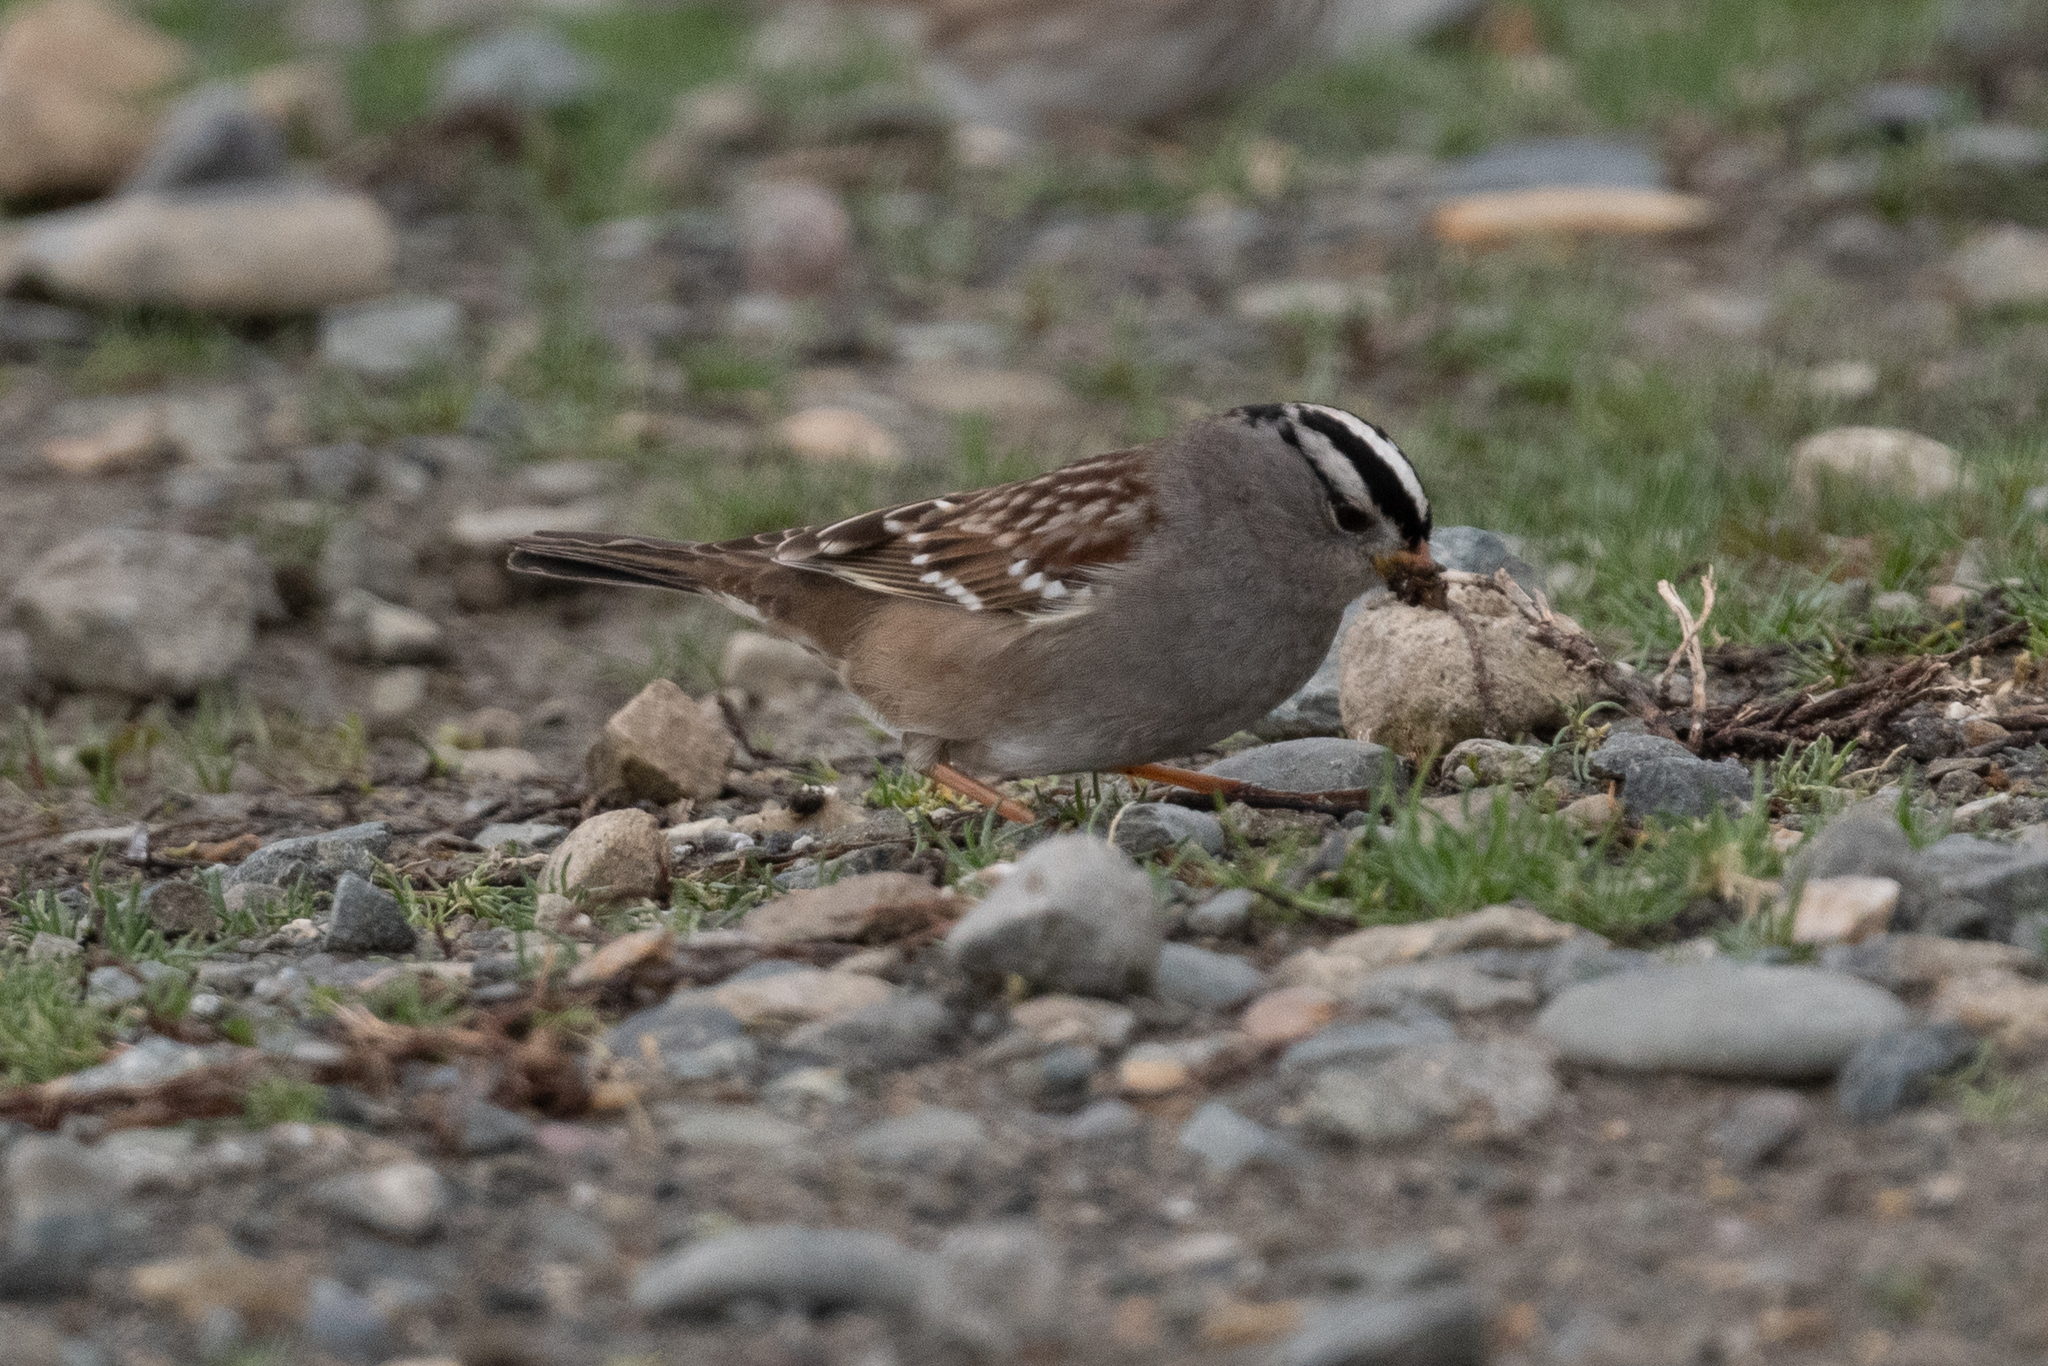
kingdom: Animalia
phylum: Chordata
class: Aves
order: Passeriformes
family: Passerellidae
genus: Zonotrichia
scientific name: Zonotrichia leucophrys
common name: White-crowned sparrow
